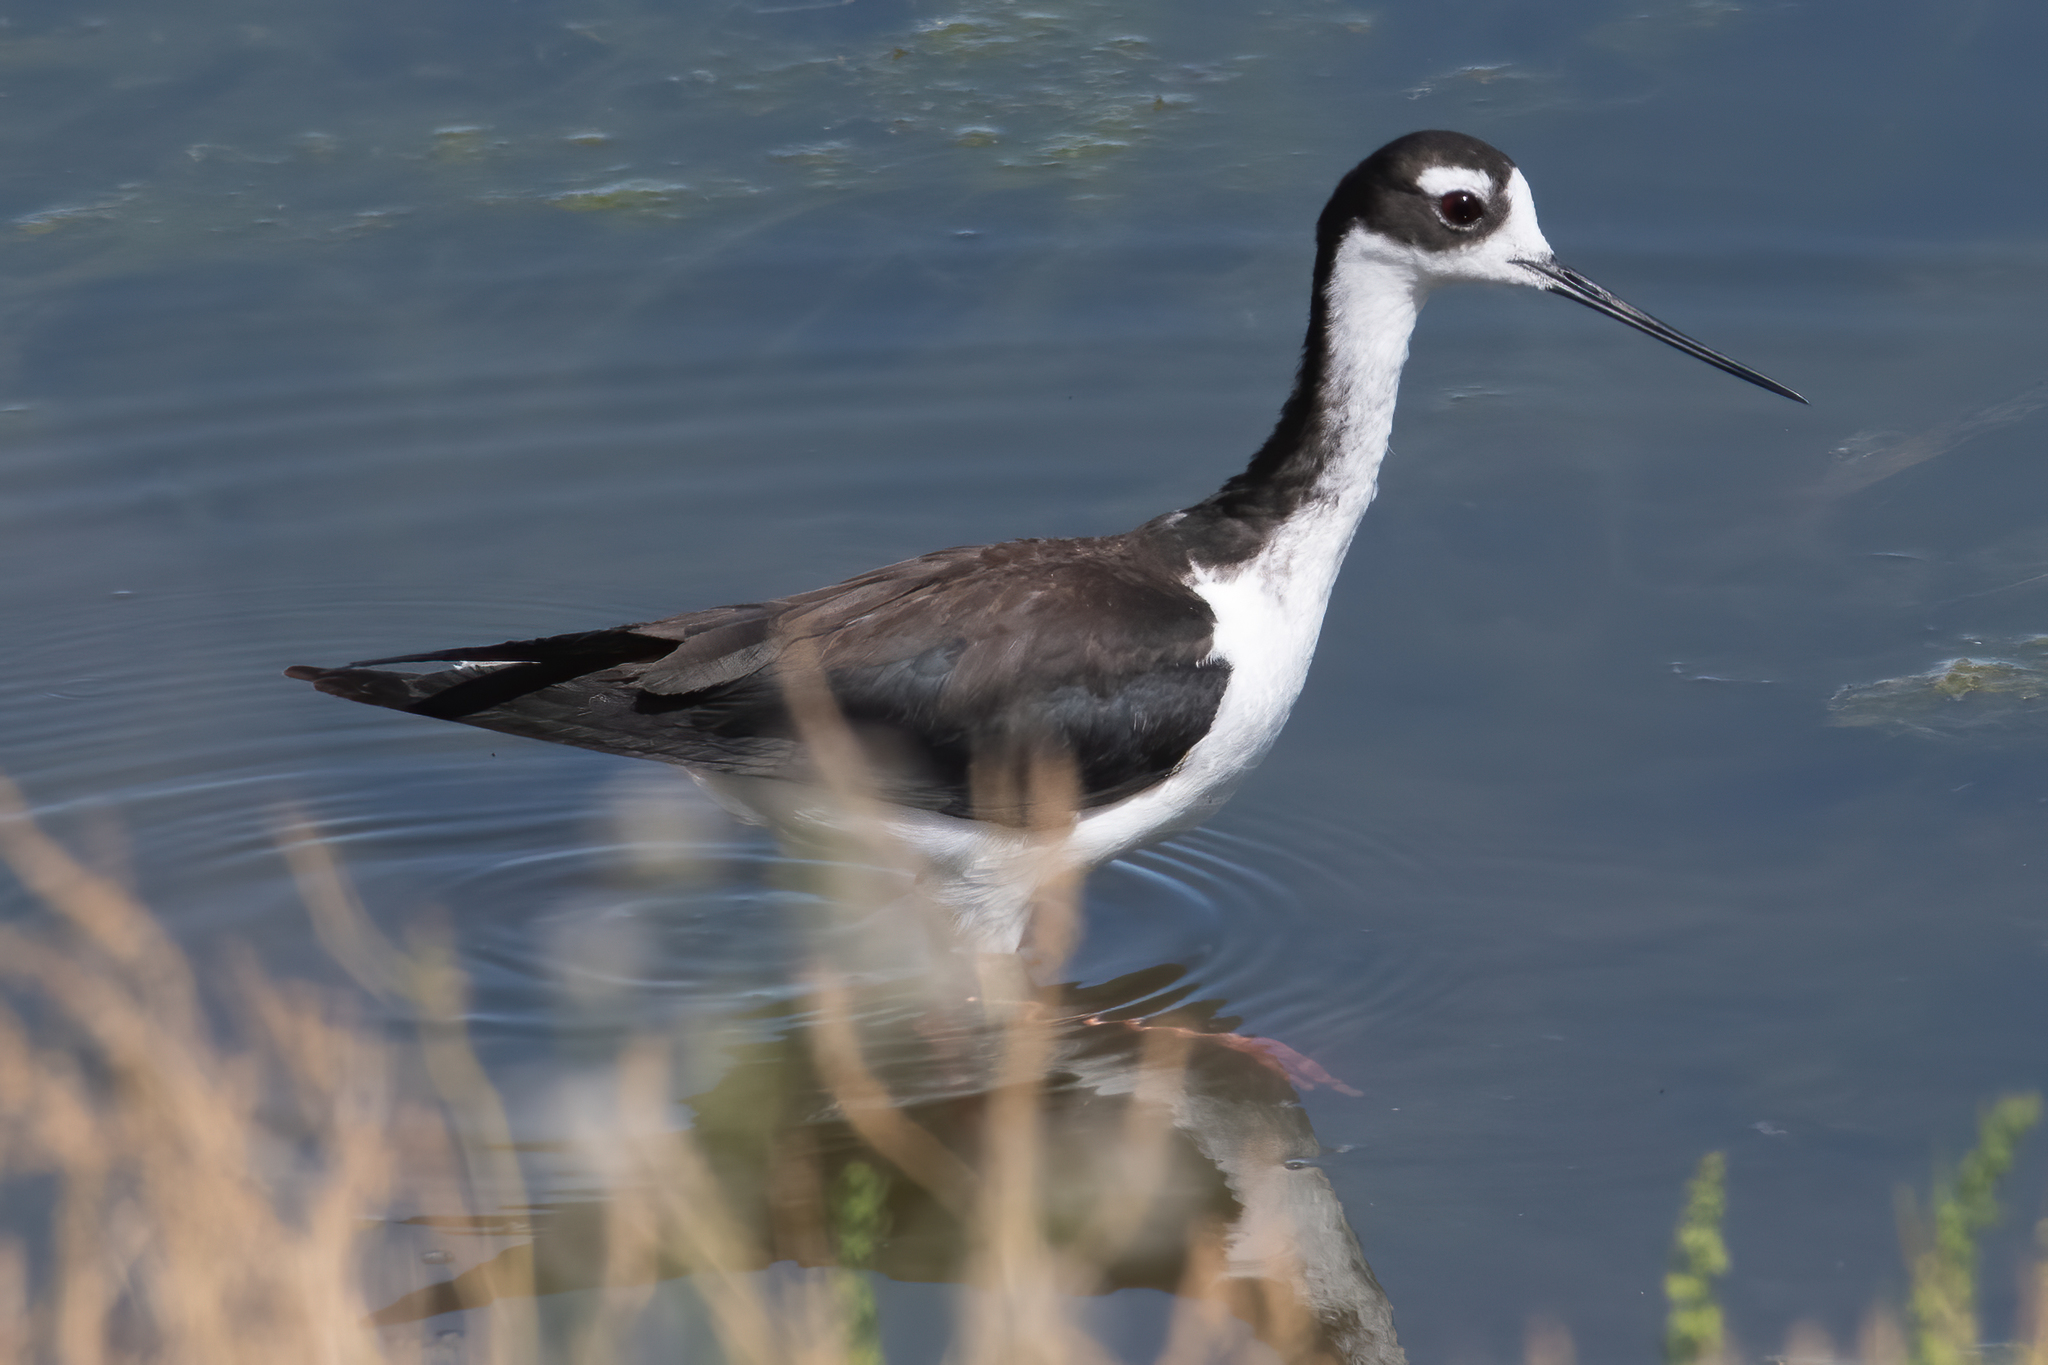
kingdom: Animalia
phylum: Chordata
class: Aves
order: Charadriiformes
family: Recurvirostridae
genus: Himantopus
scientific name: Himantopus mexicanus
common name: Black-necked stilt
